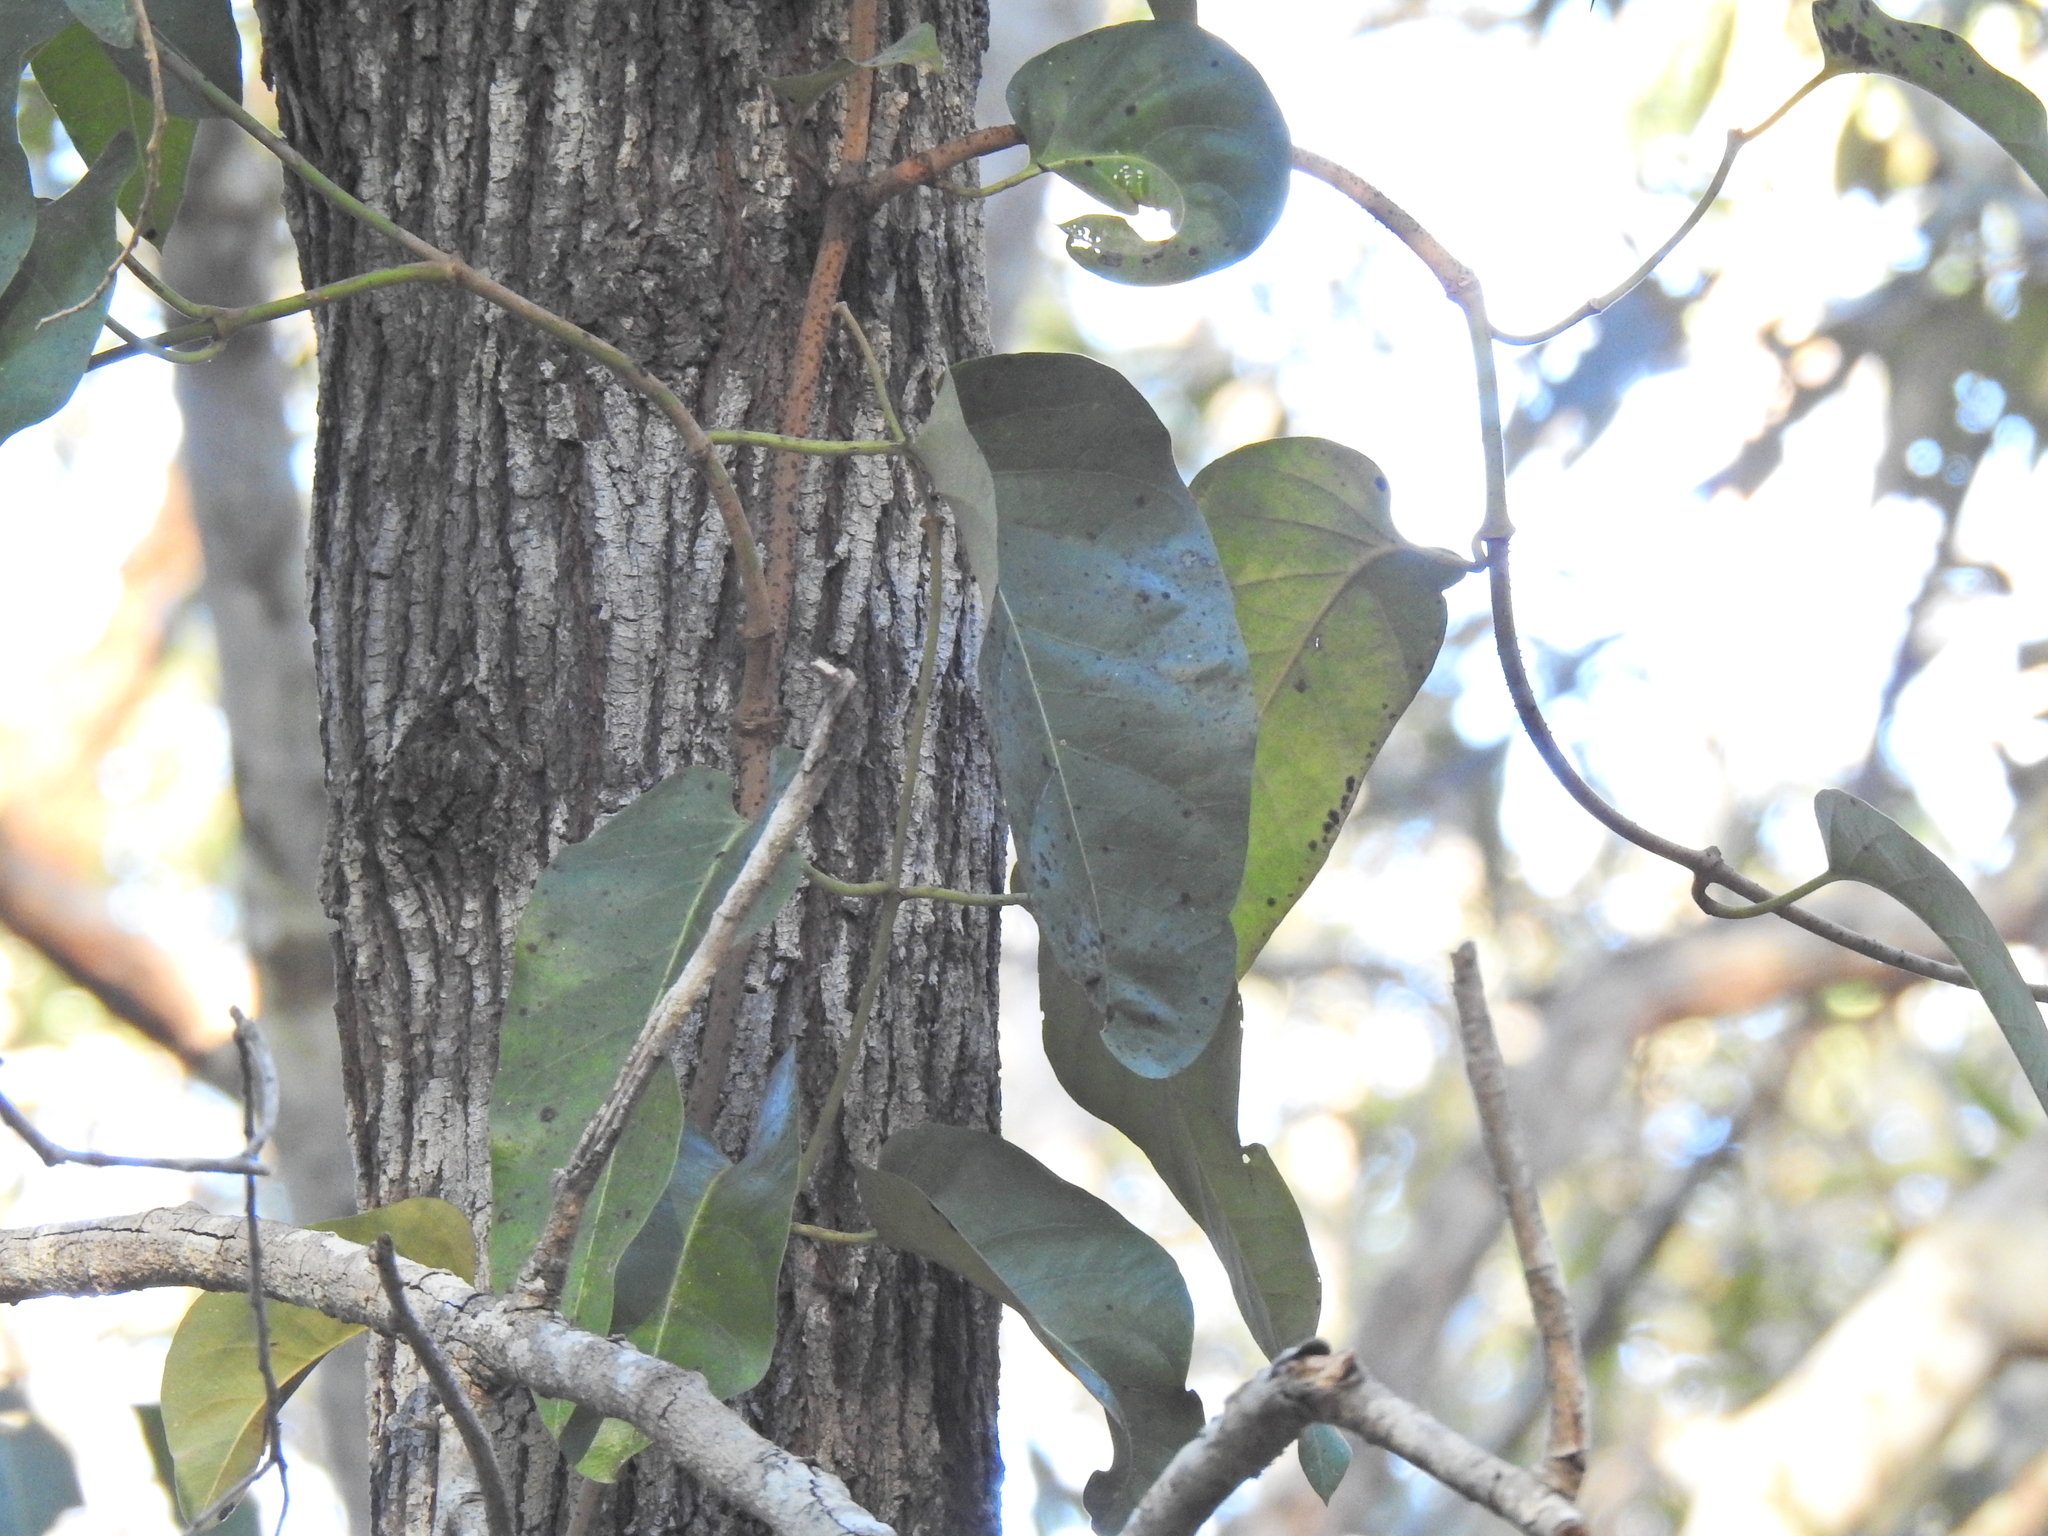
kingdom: Plantae
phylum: Tracheophyta
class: Magnoliopsida
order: Gentianales
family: Apocynaceae
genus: Parsonsia
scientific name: Parsonsia brisbanensis
